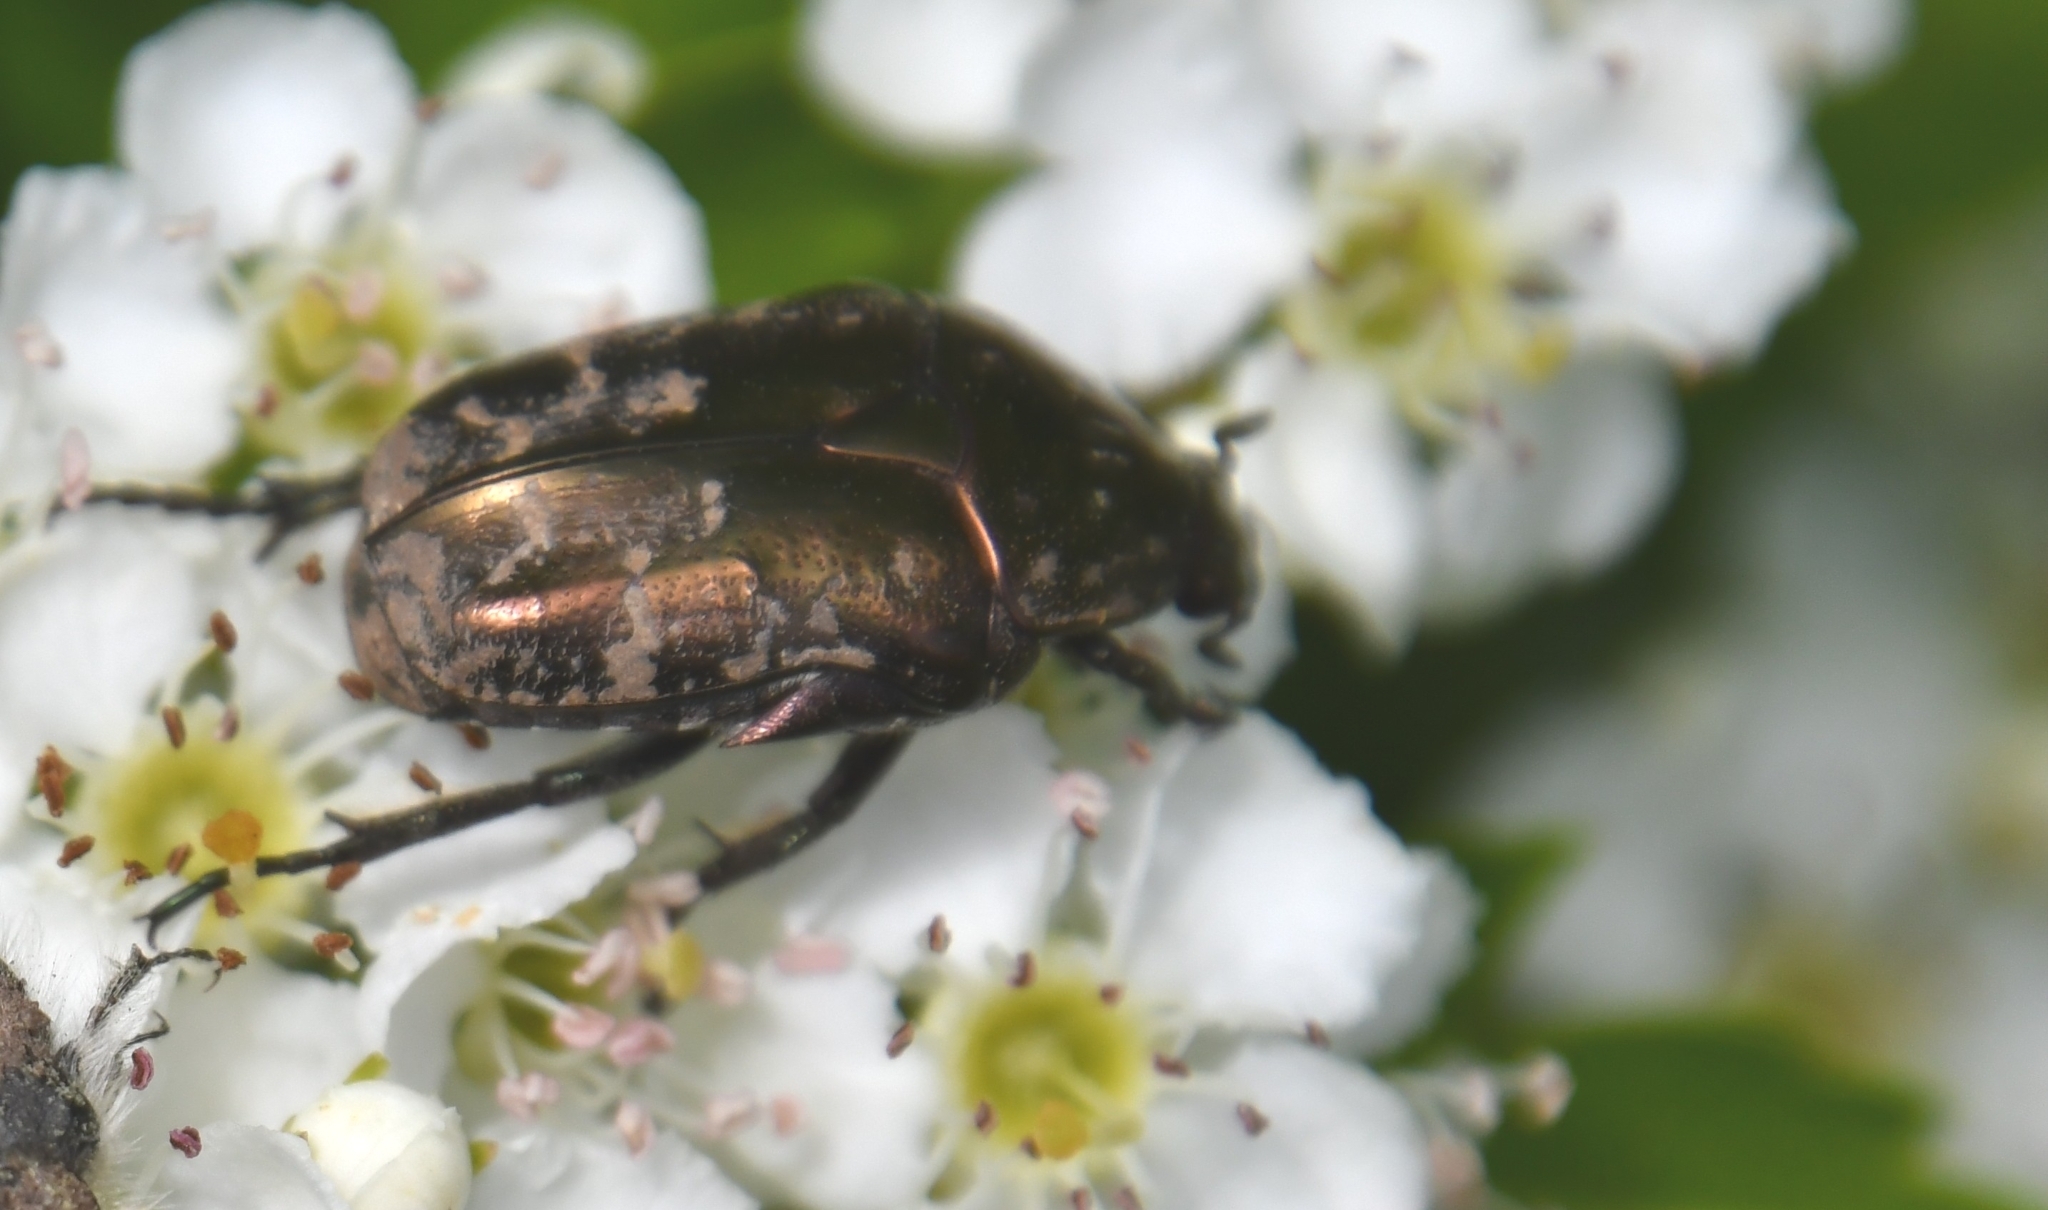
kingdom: Animalia
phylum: Arthropoda
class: Insecta
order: Coleoptera
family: Scarabaeidae
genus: Protaetia
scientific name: Protaetia cuprea
